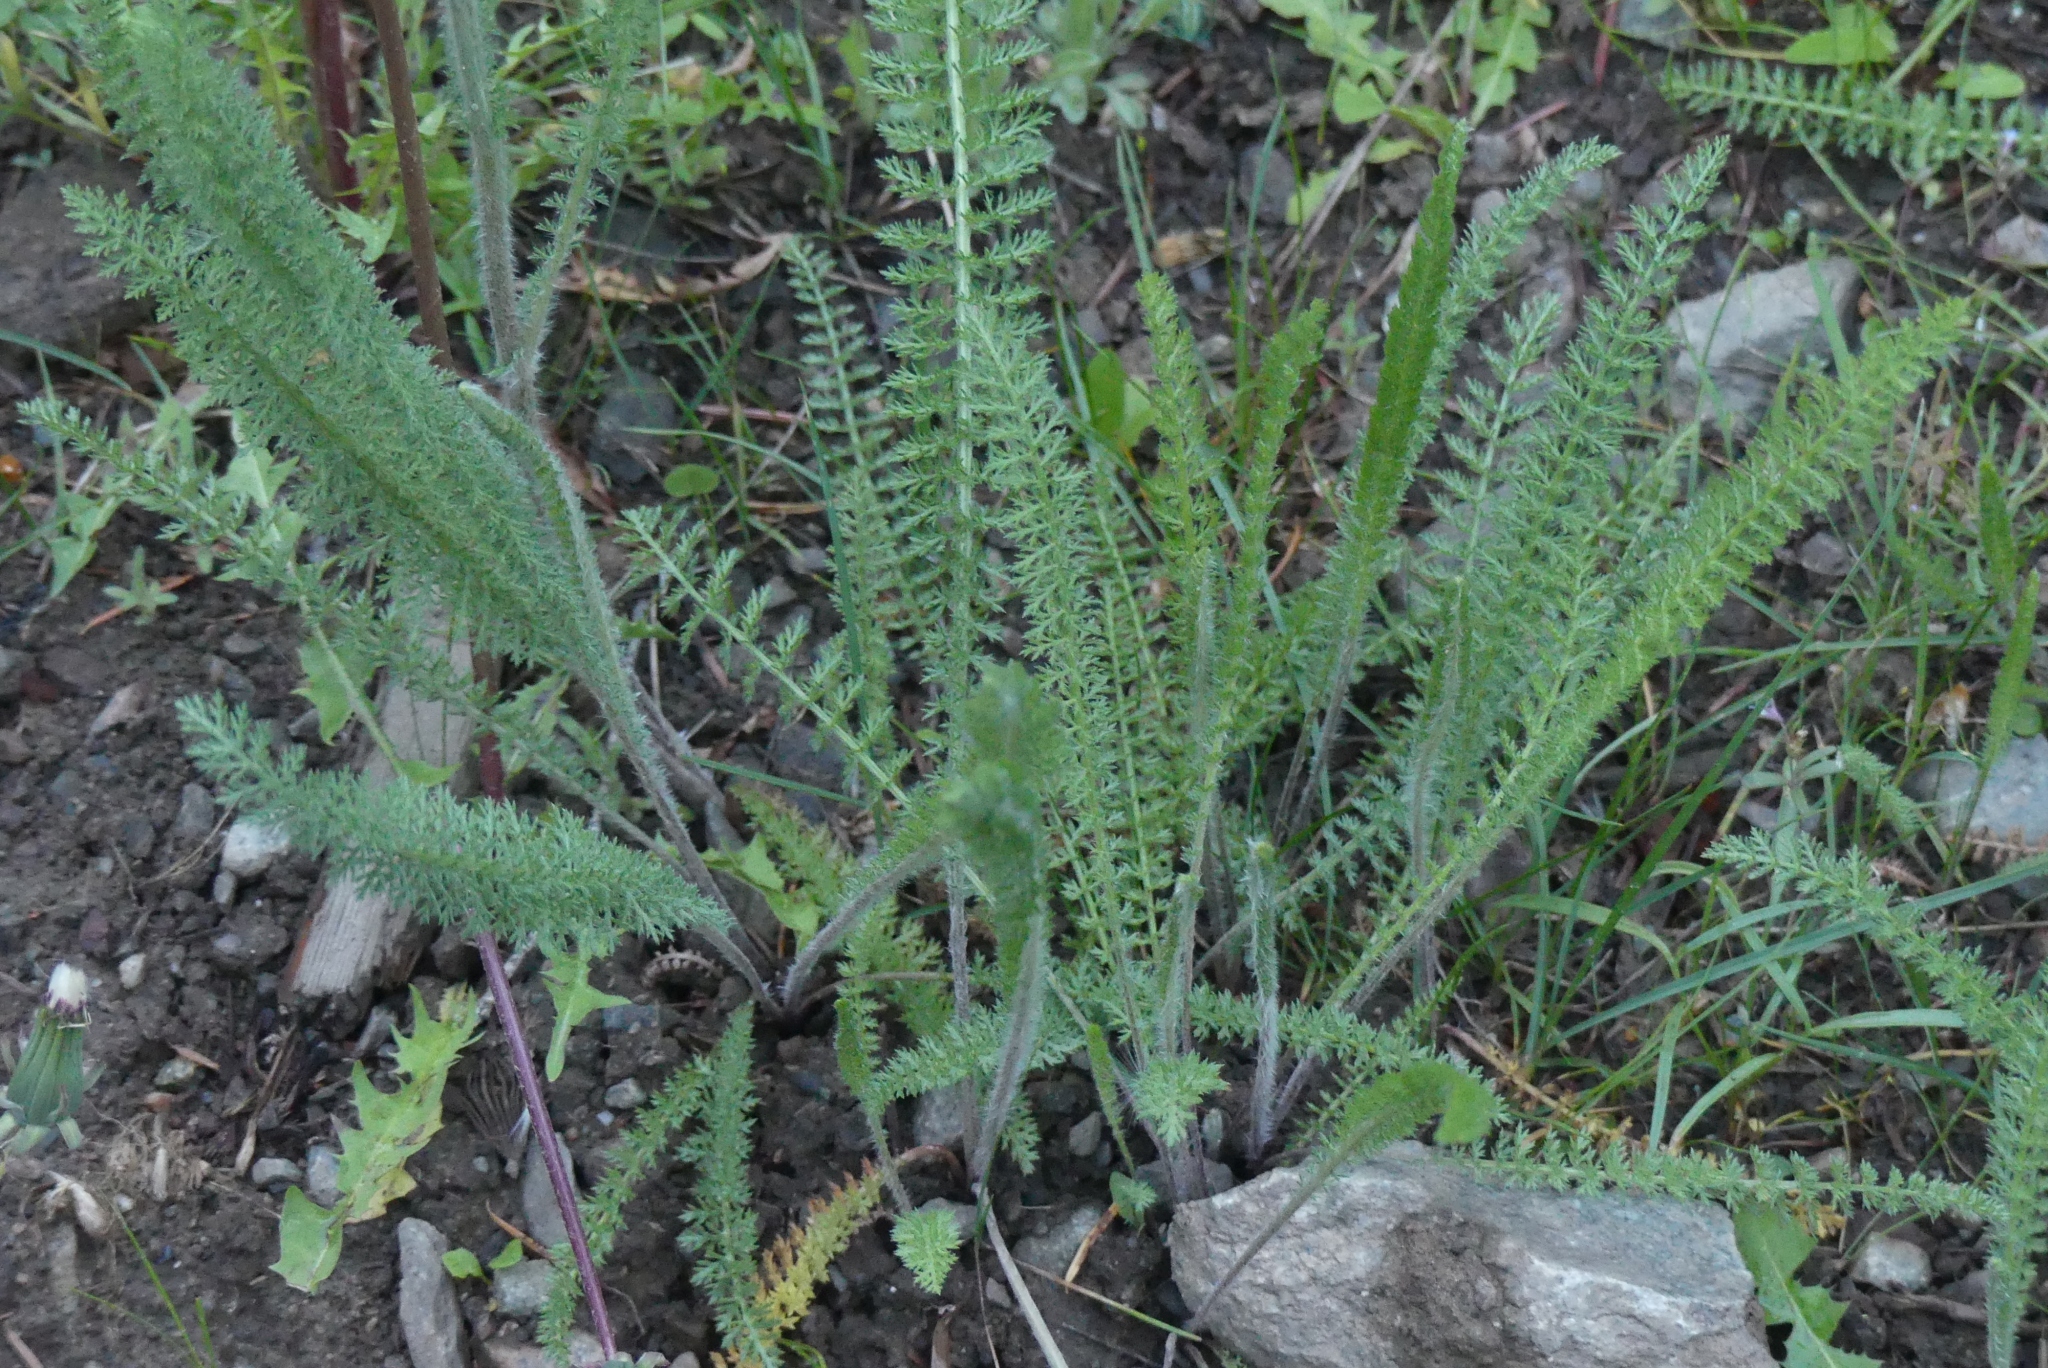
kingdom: Plantae
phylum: Tracheophyta
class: Magnoliopsida
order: Asterales
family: Asteraceae
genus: Achillea
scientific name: Achillea millefolium
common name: Yarrow
